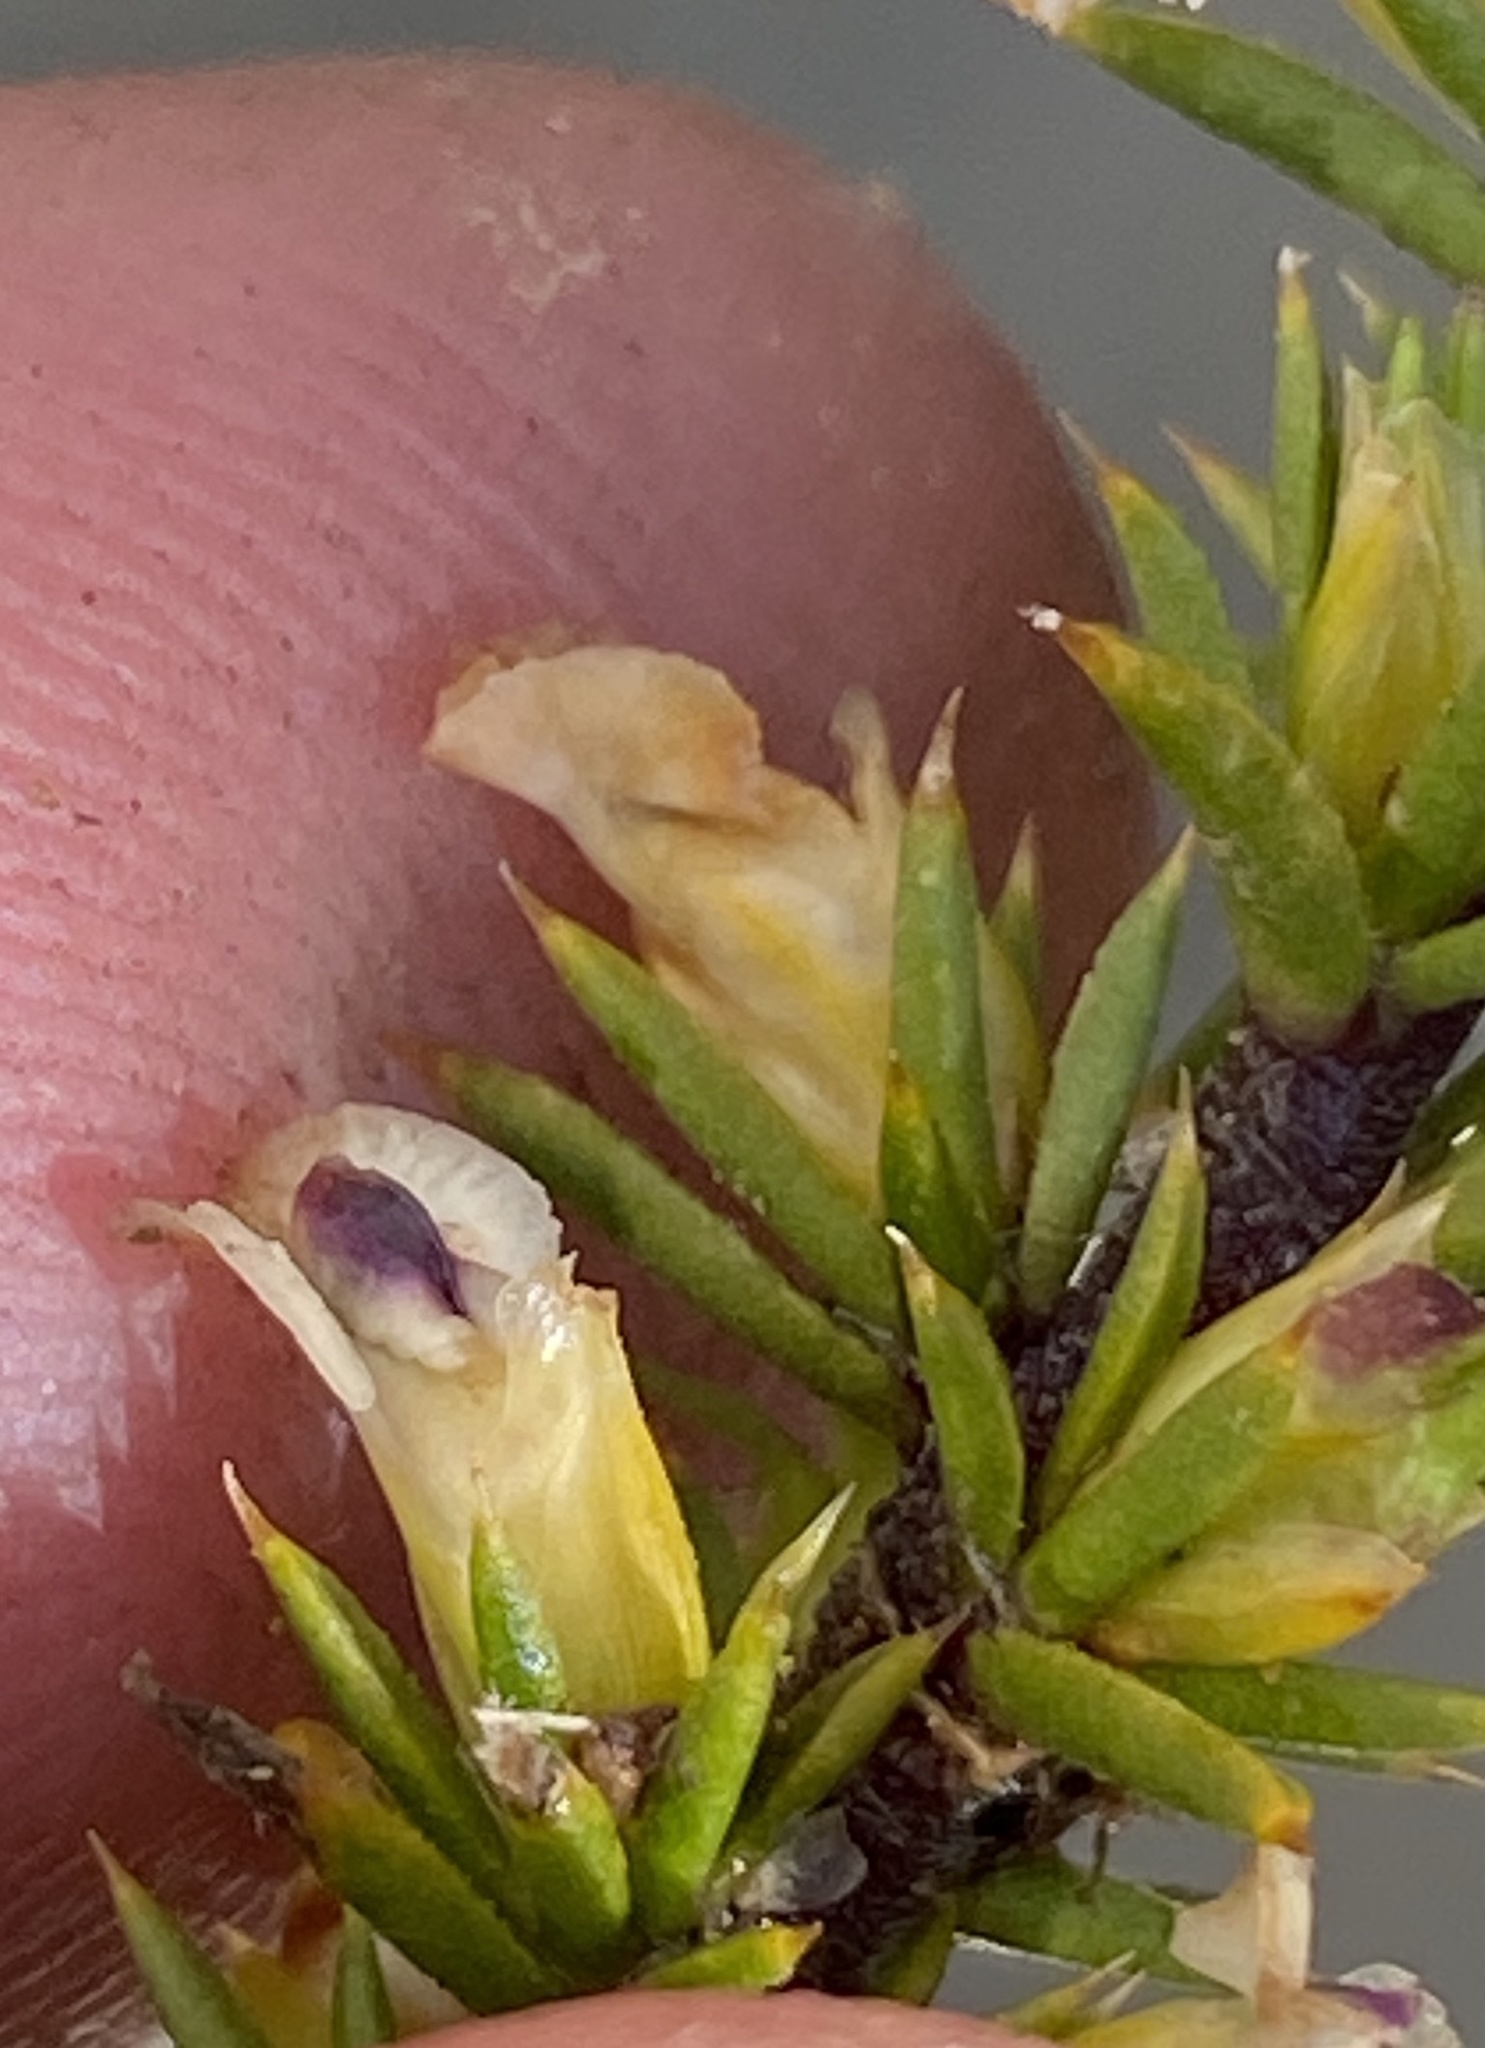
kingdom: Plantae
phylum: Tracheophyta
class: Magnoliopsida
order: Fabales
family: Polygalaceae
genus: Muraltia
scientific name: Muraltia ericifolia
